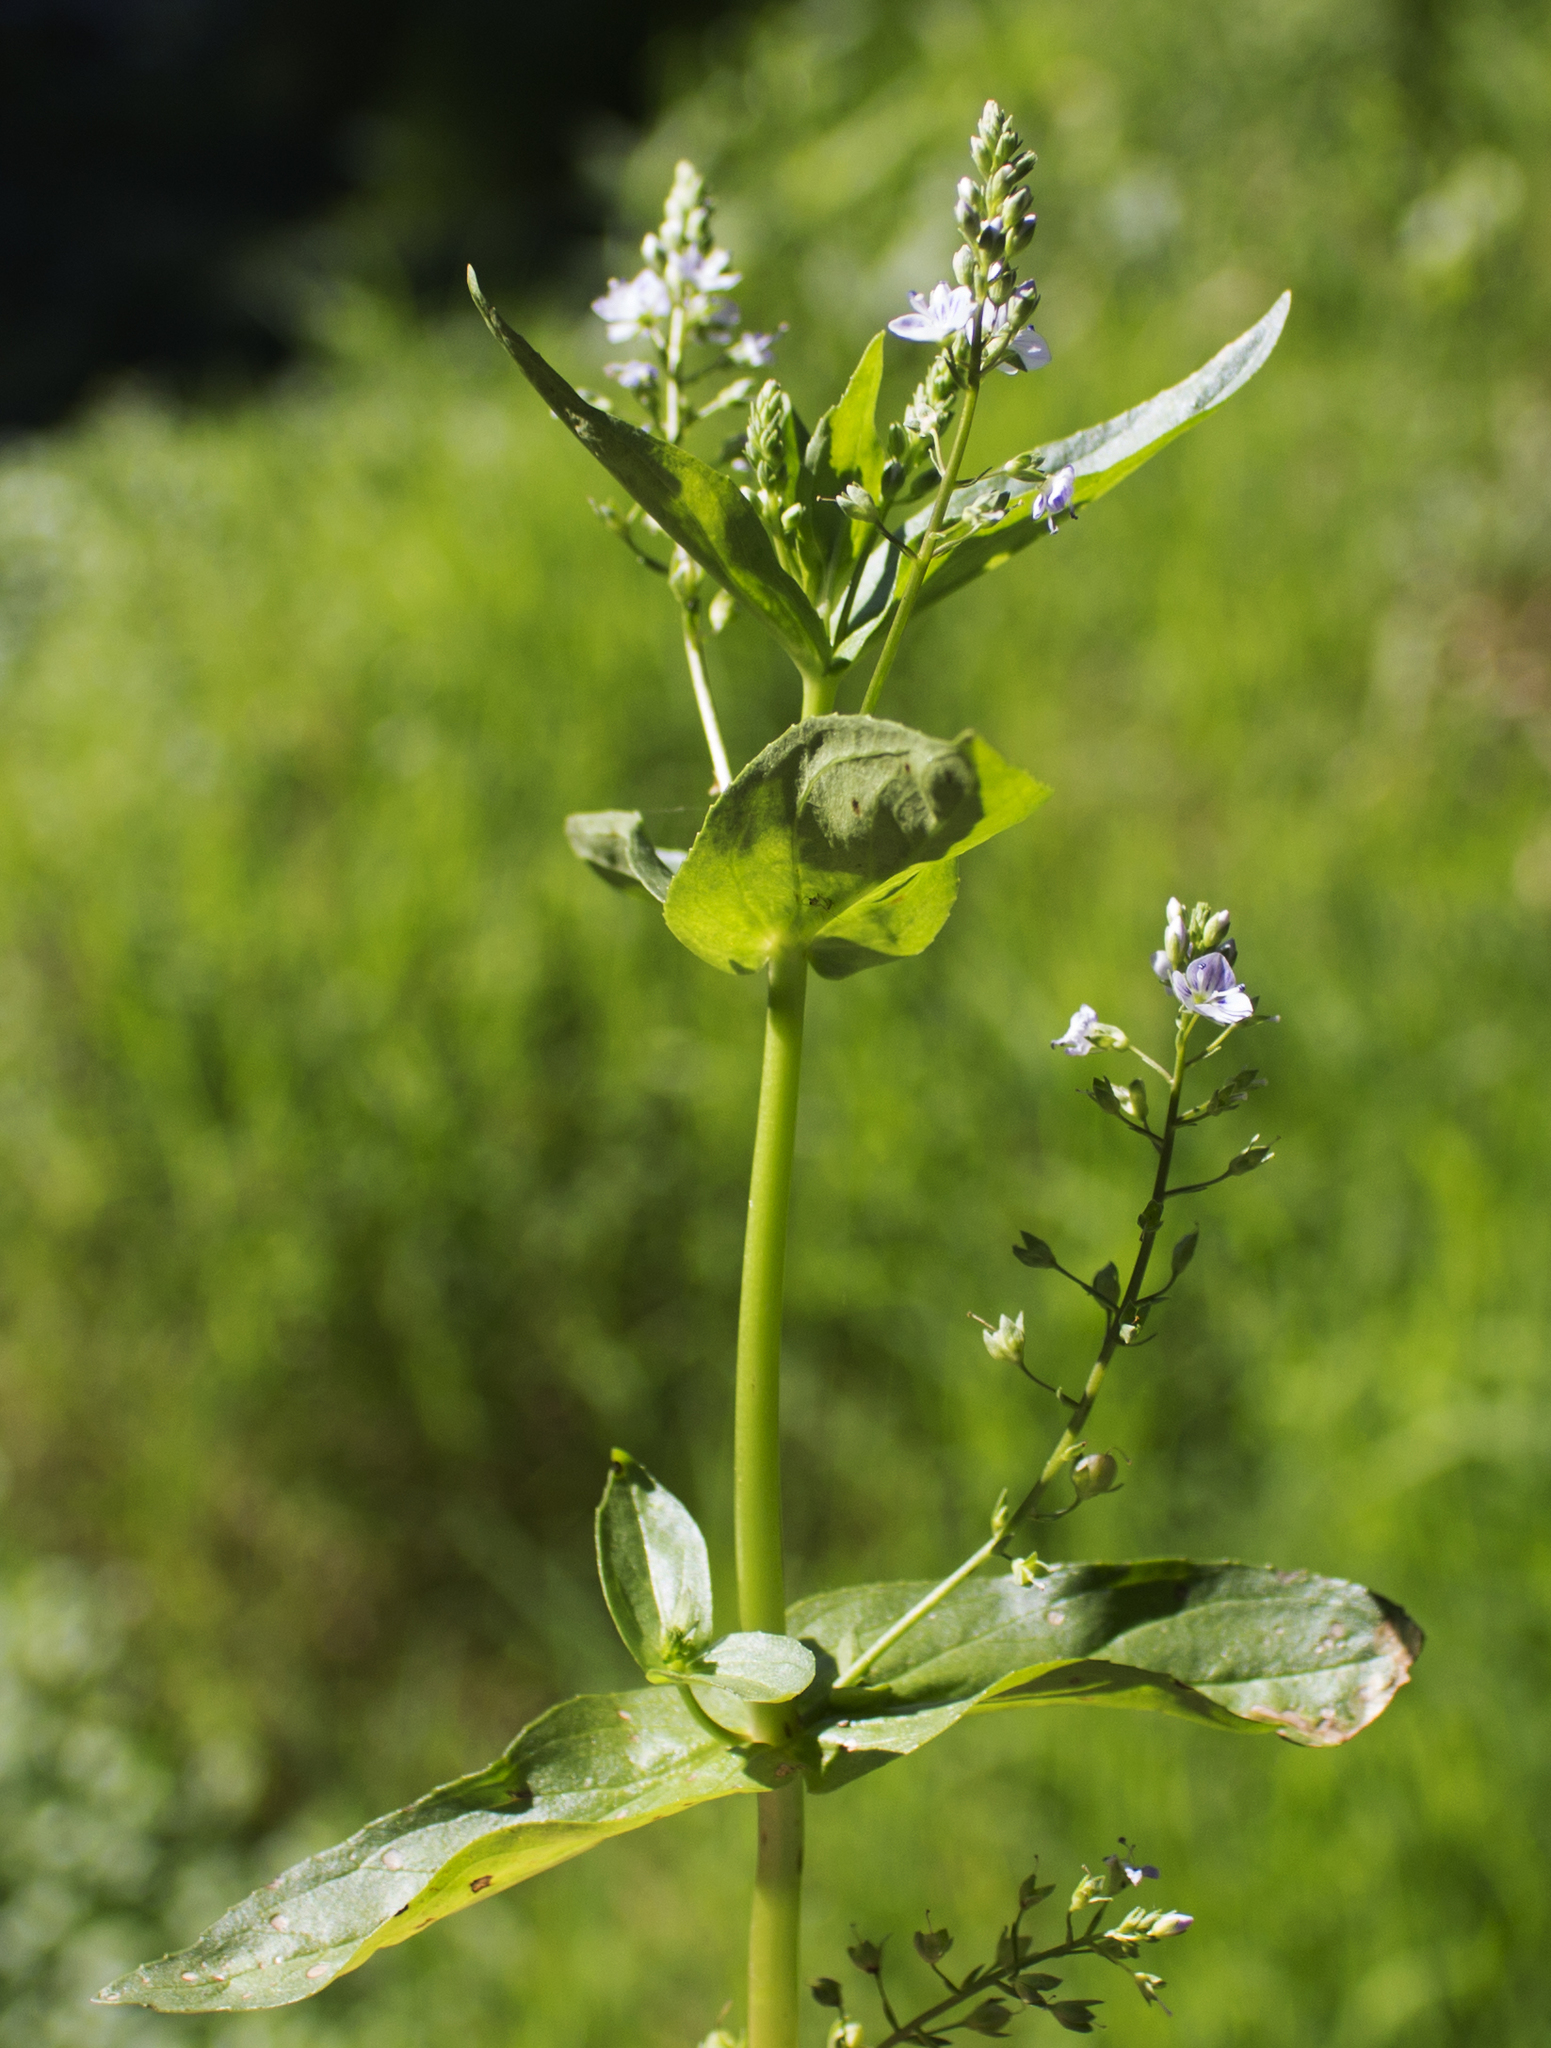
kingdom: Plantae
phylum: Tracheophyta
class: Magnoliopsida
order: Lamiales
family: Plantaginaceae
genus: Veronica
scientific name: Veronica anagallis-aquatica
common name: Water speedwell
